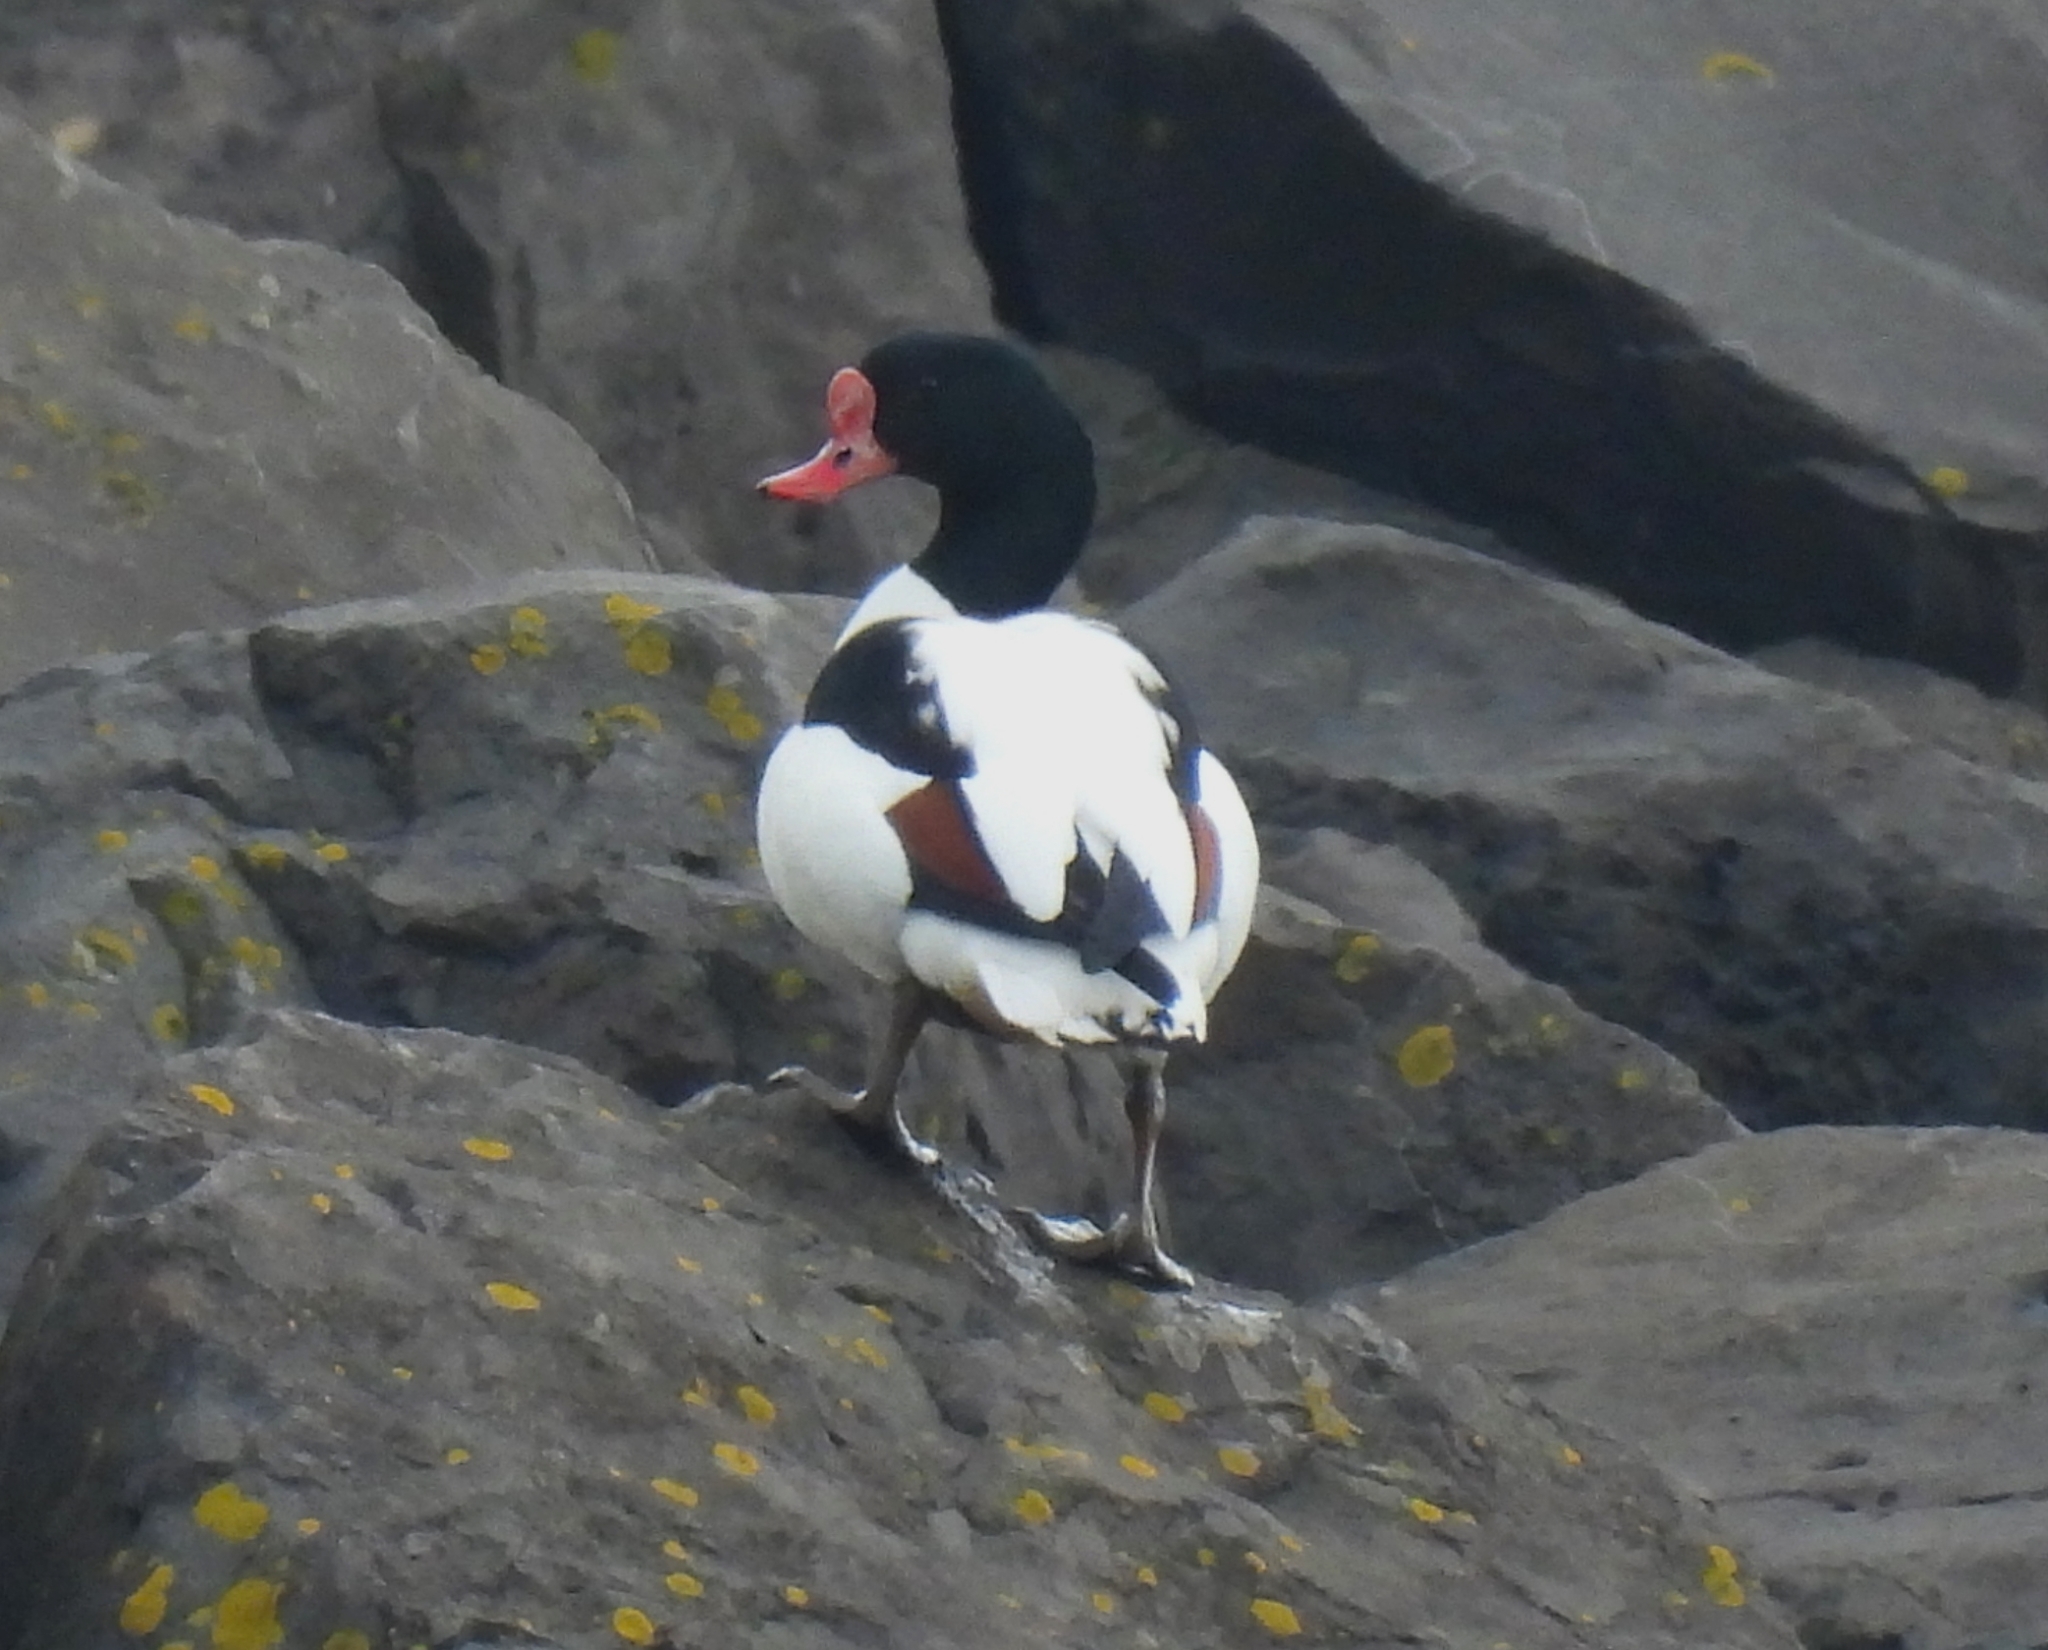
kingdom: Animalia
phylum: Chordata
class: Aves
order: Anseriformes
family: Anatidae
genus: Tadorna
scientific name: Tadorna tadorna
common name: Common shelduck
